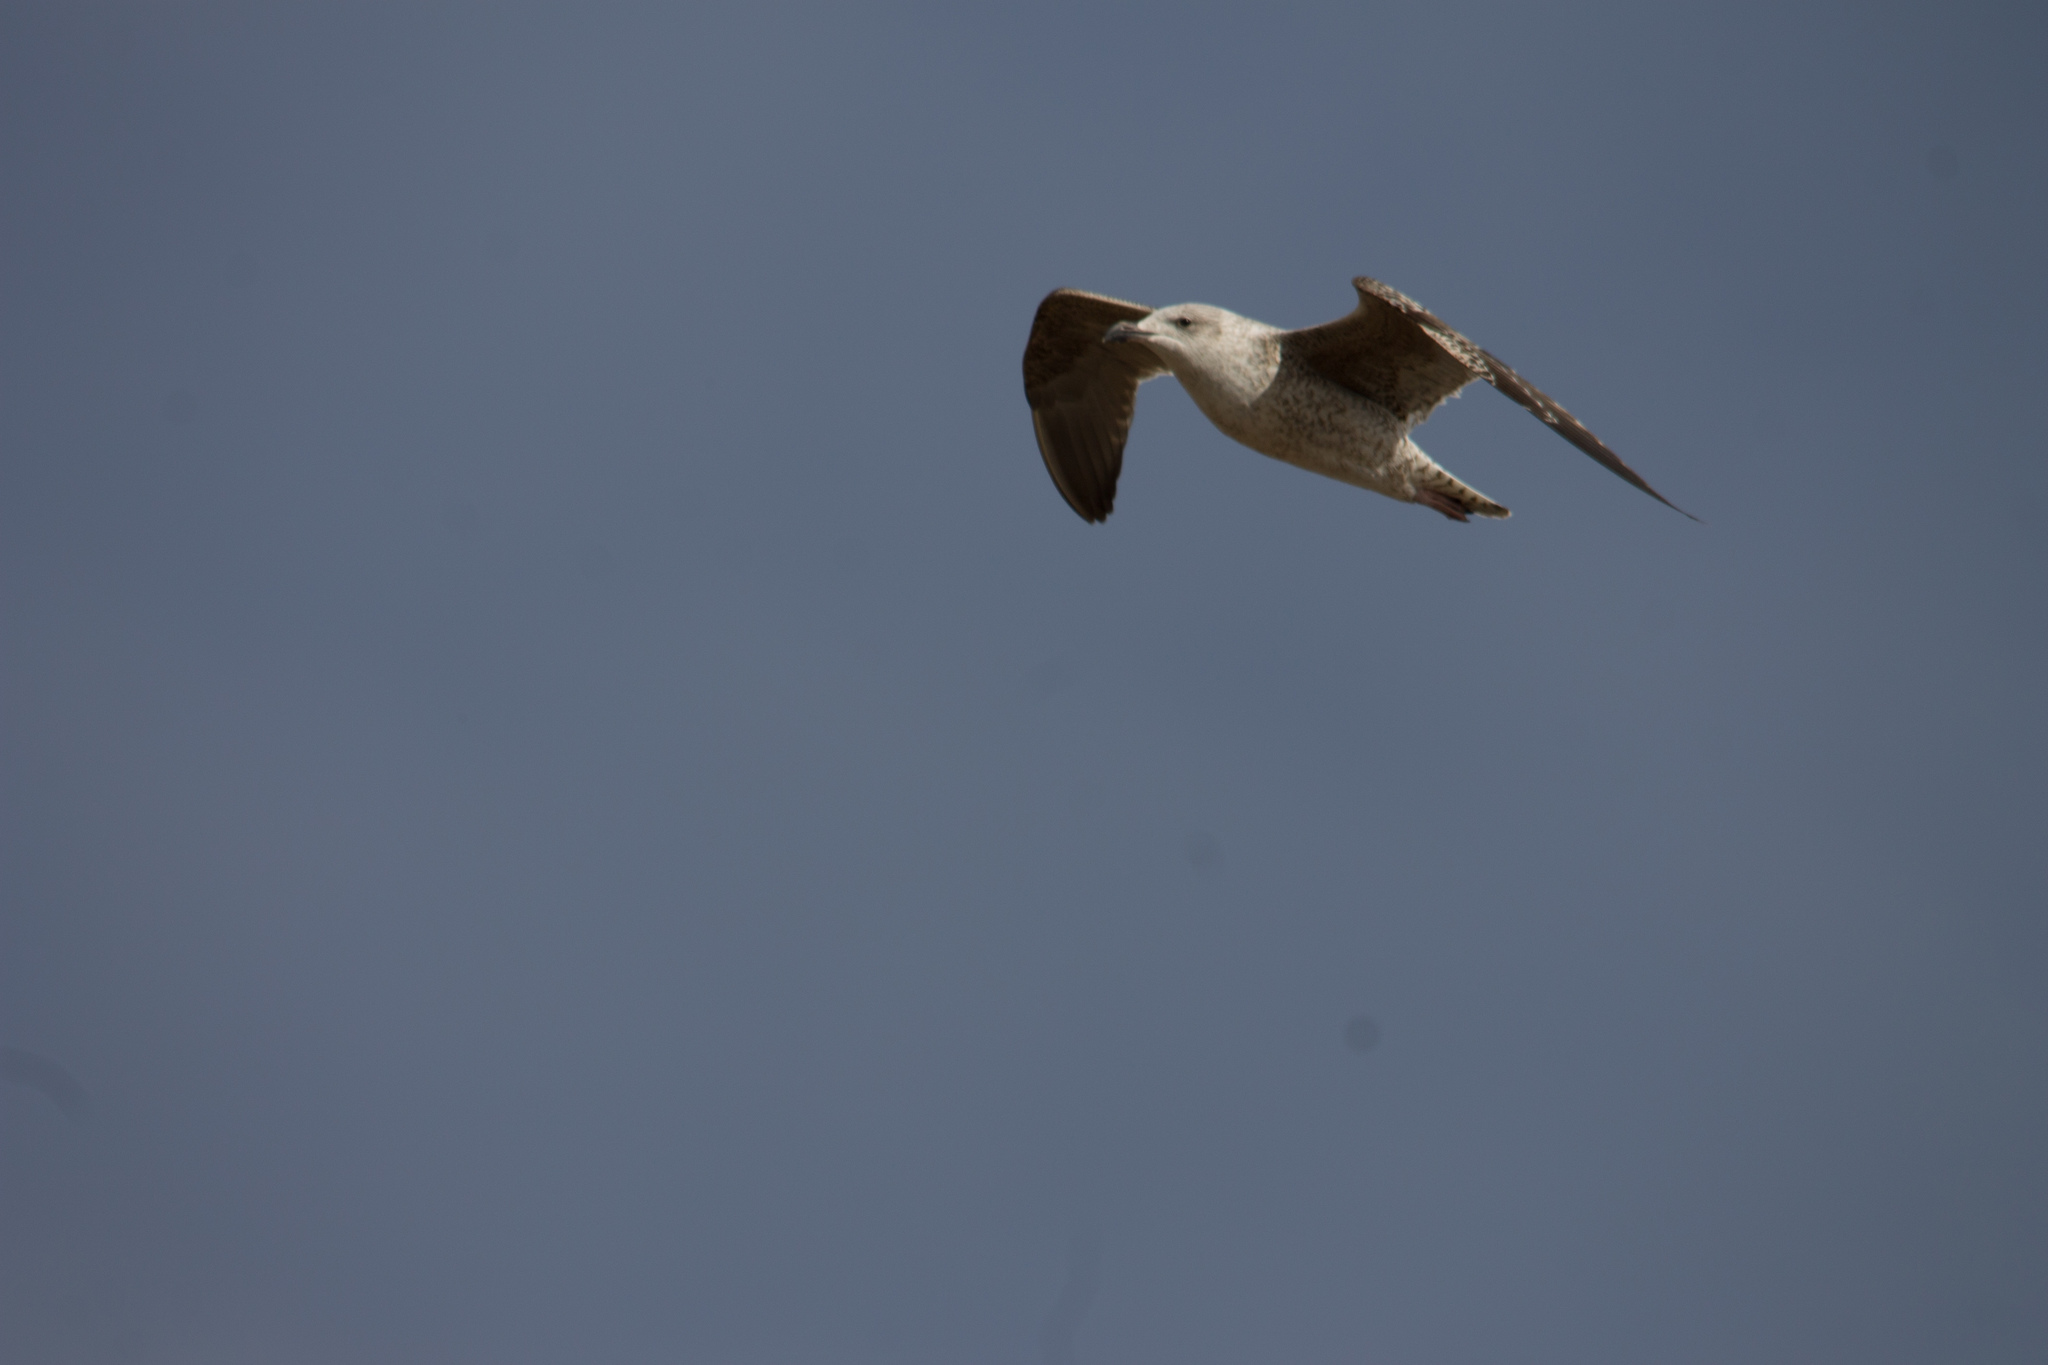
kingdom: Animalia
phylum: Chordata
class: Aves
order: Charadriiformes
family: Laridae
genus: Larus
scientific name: Larus argentatus
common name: Herring gull
